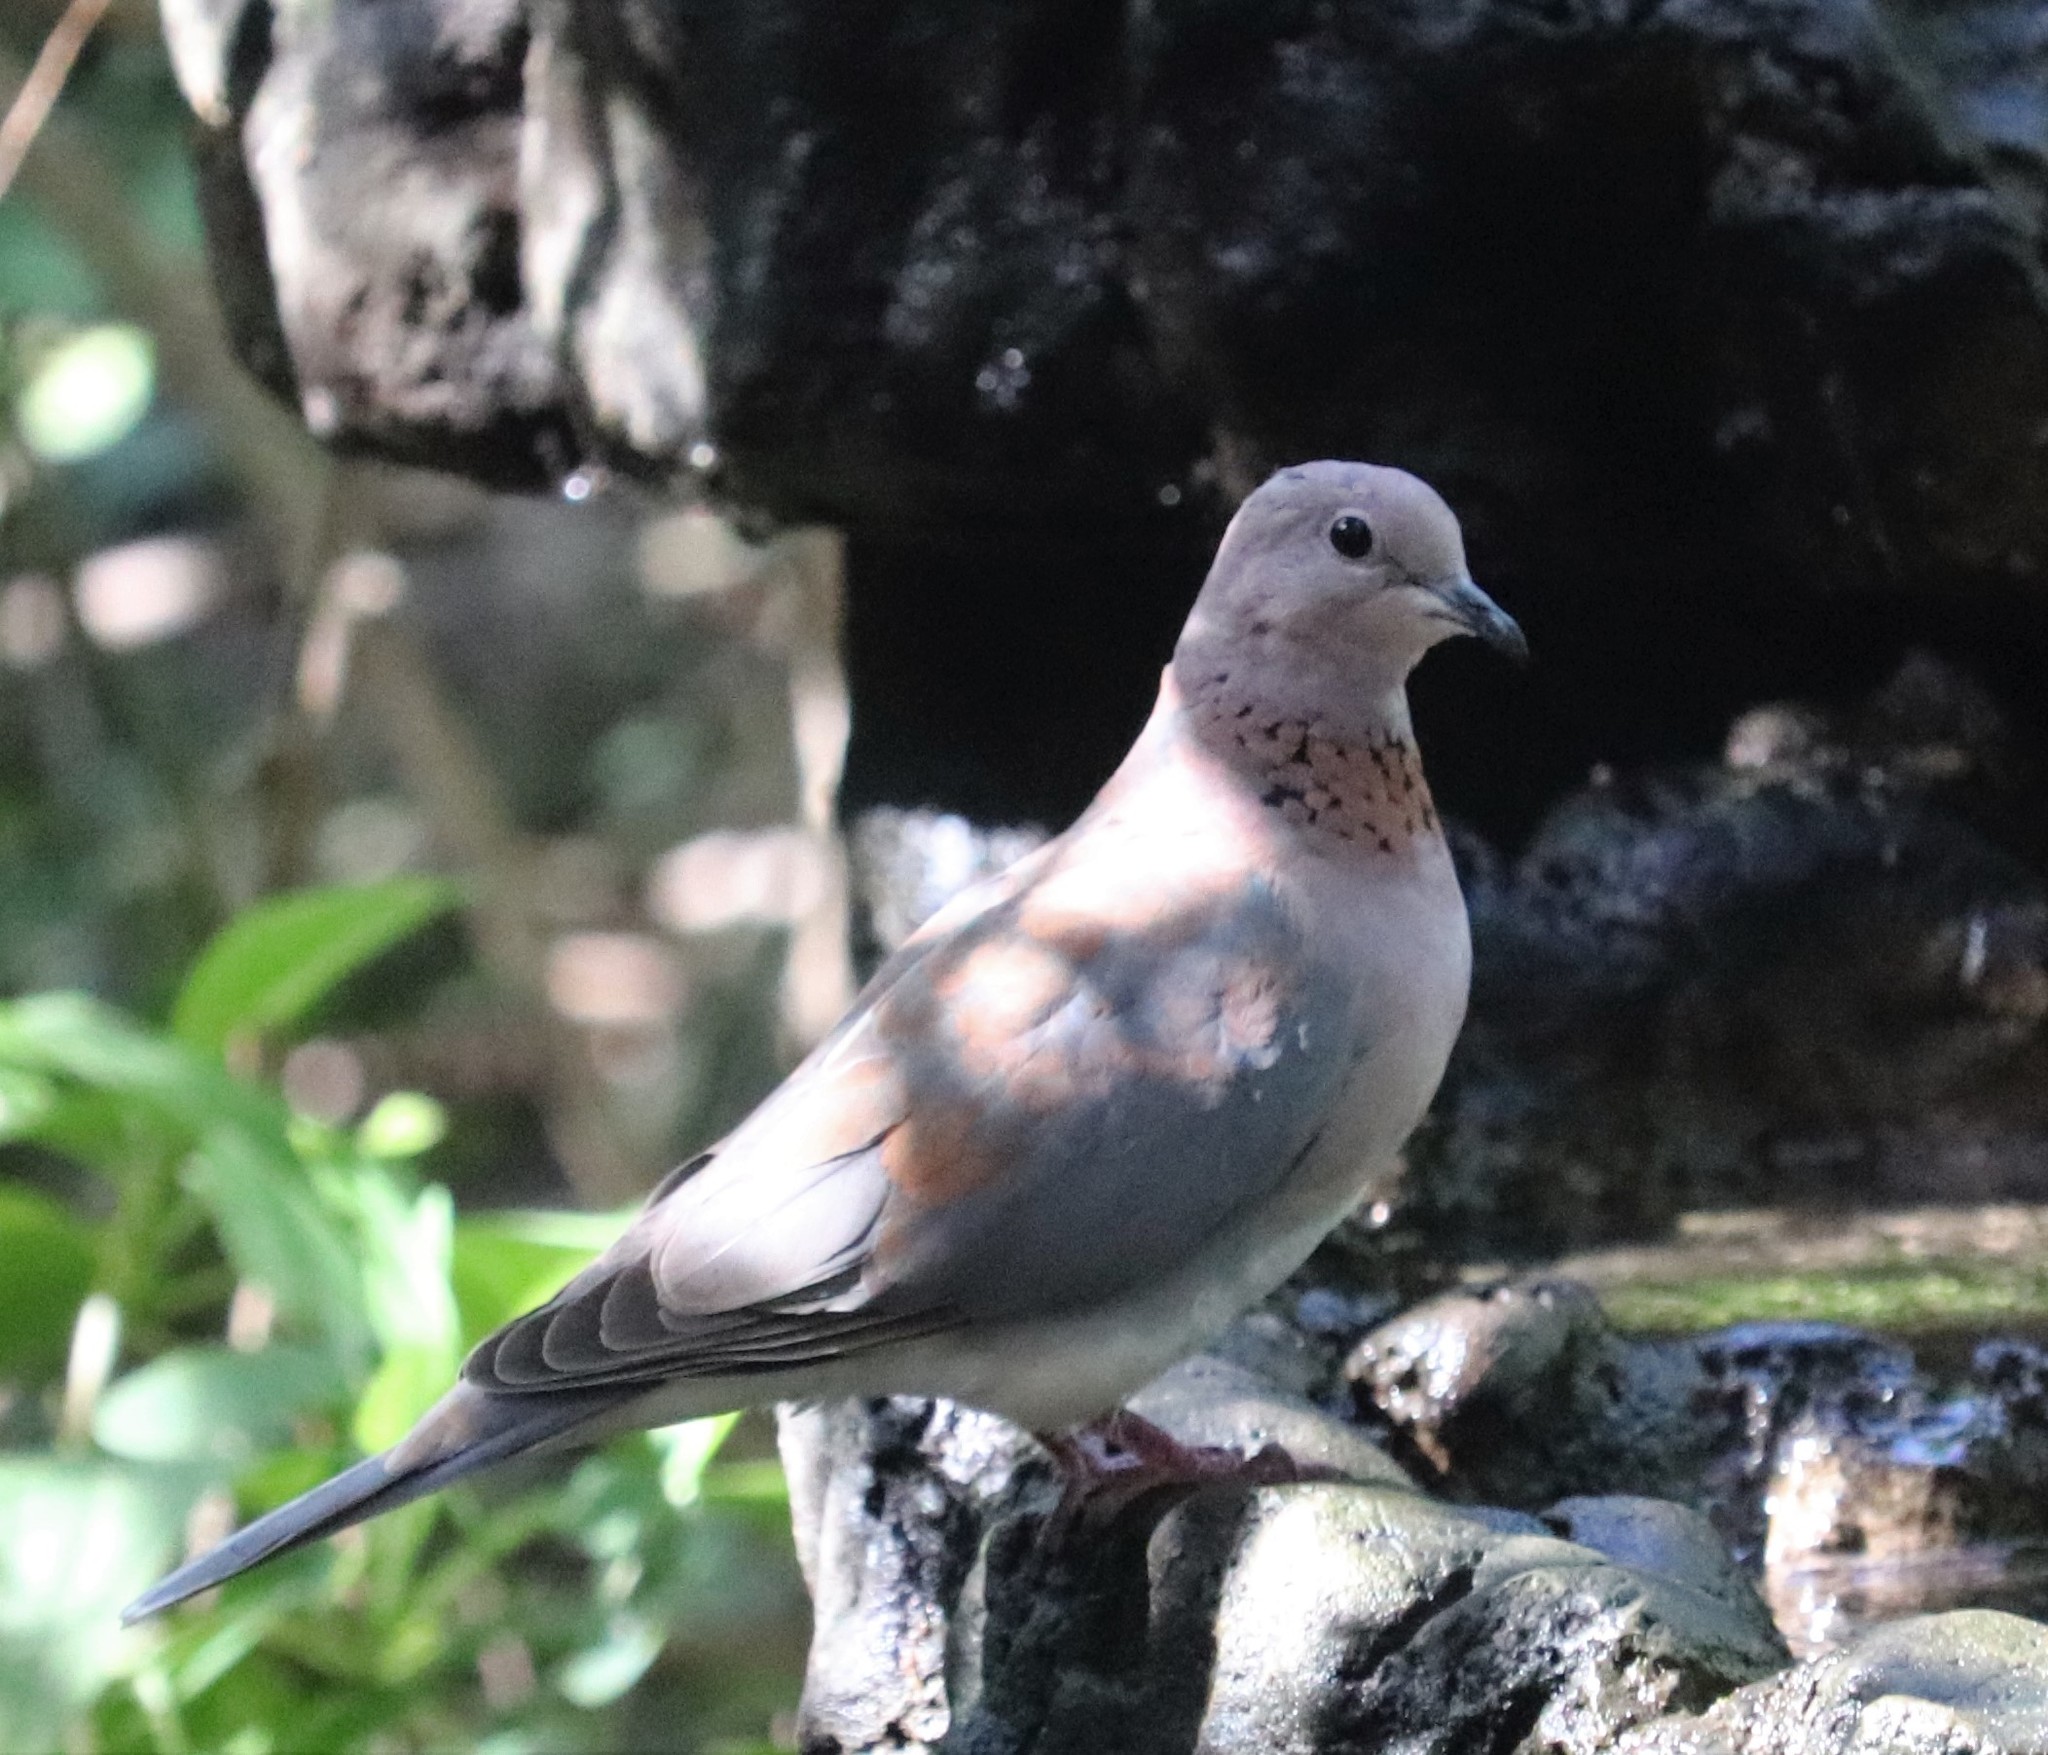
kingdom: Animalia
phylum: Chordata
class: Aves
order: Columbiformes
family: Columbidae
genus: Spilopelia
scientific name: Spilopelia senegalensis
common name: Laughing dove
